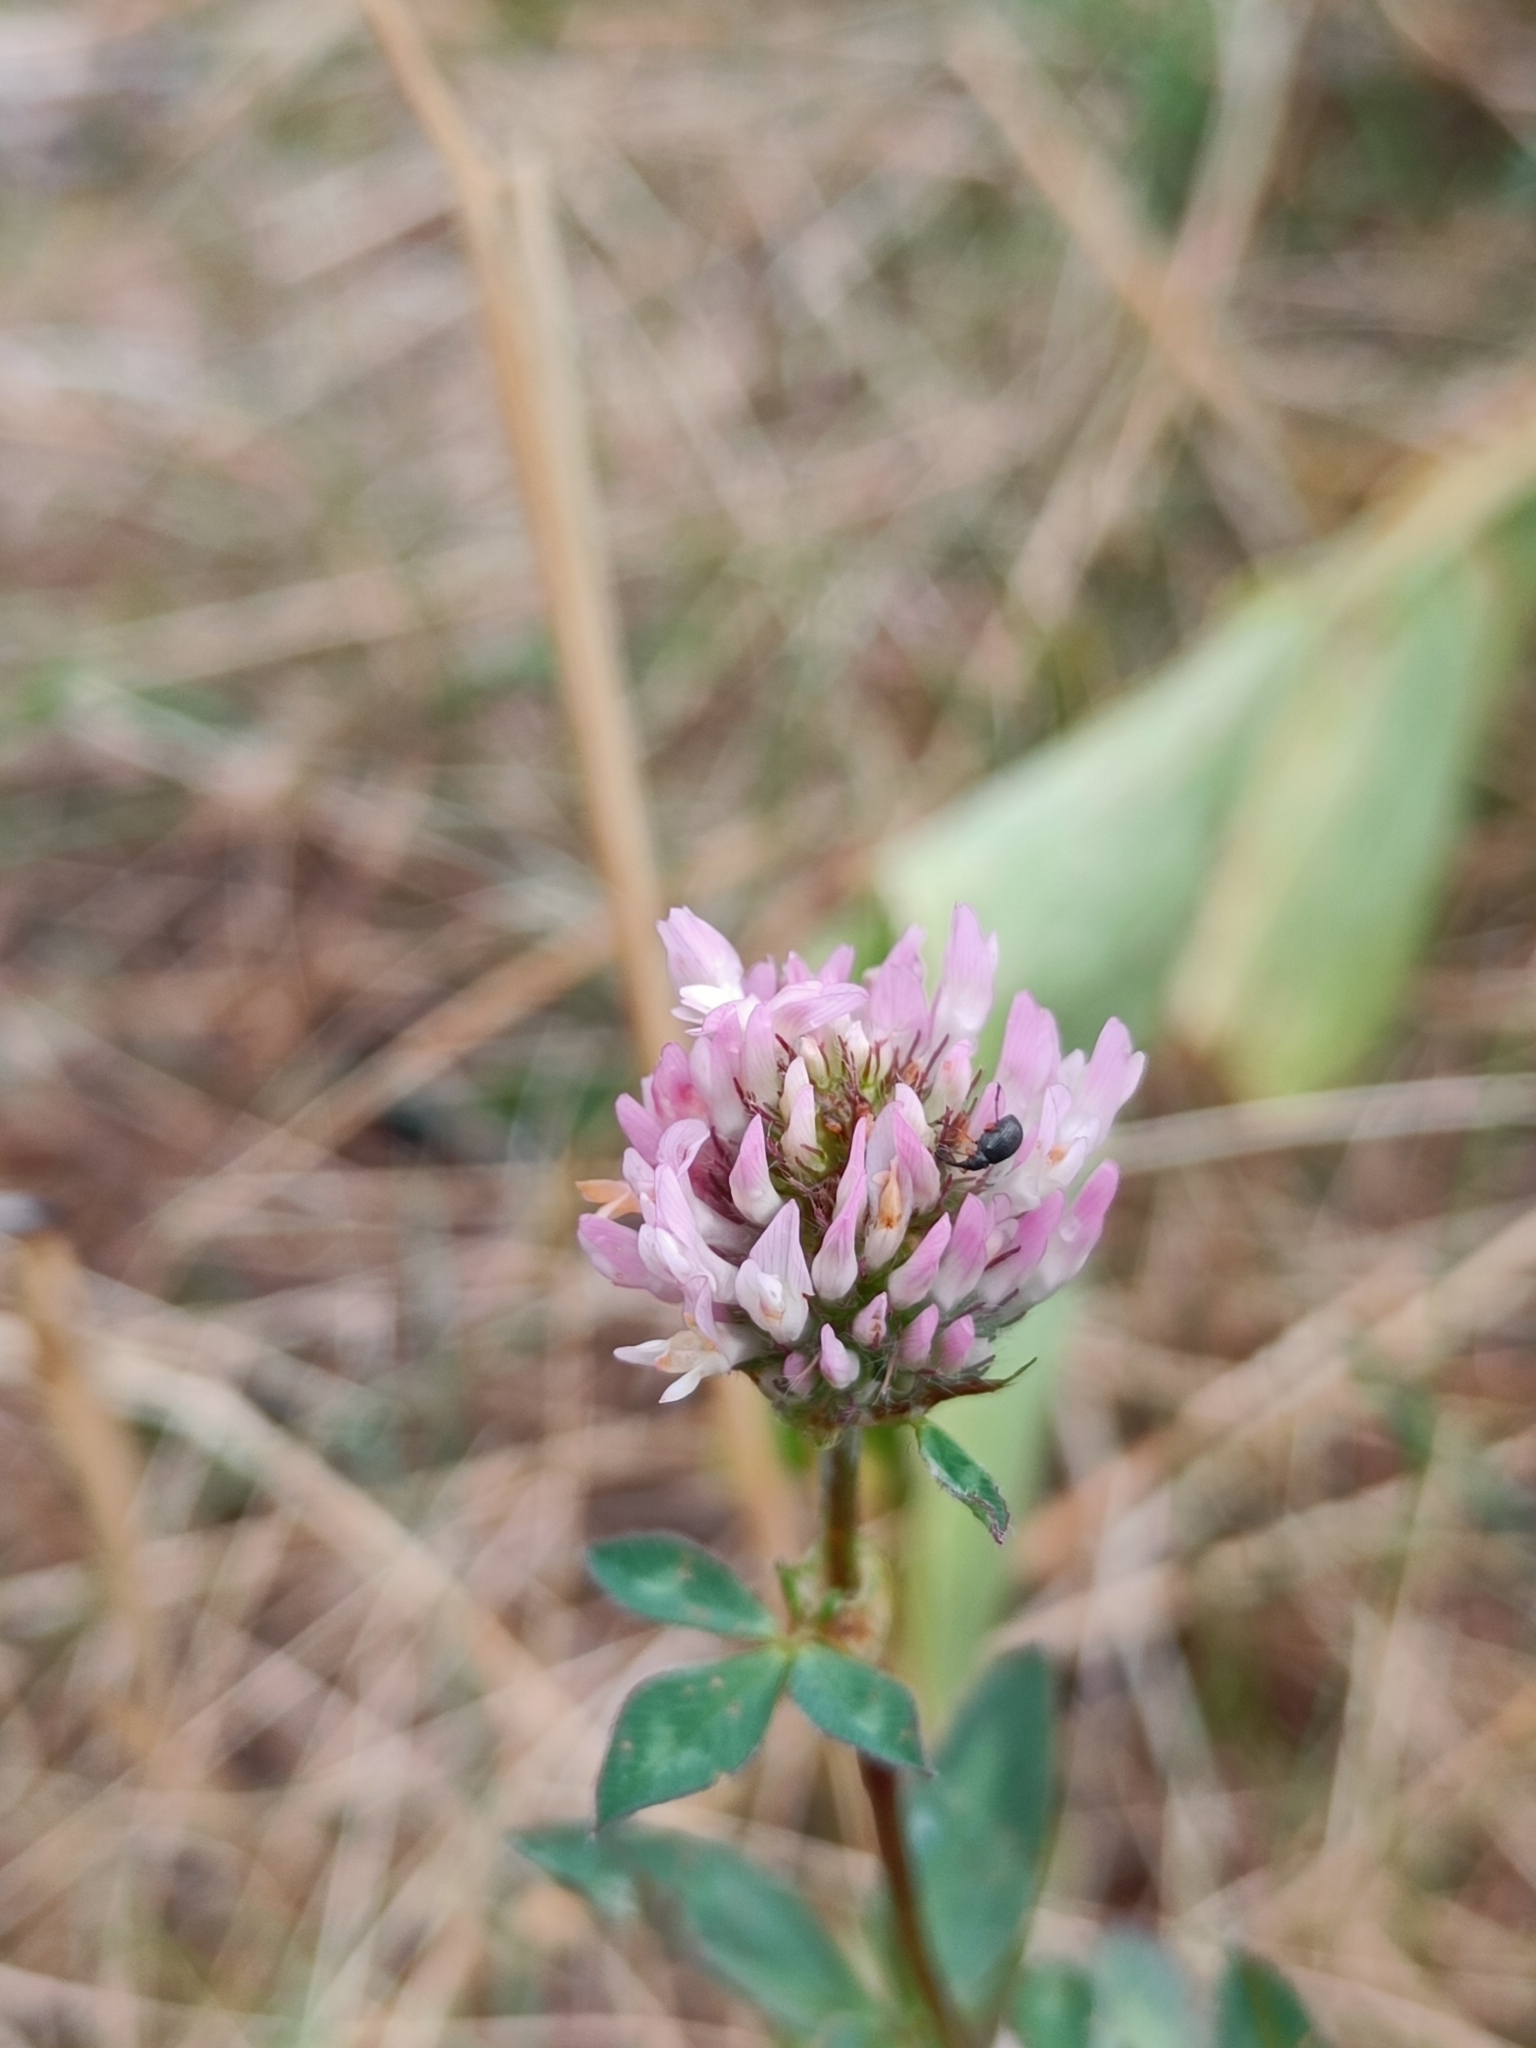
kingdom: Plantae
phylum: Tracheophyta
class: Magnoliopsida
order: Fabales
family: Fabaceae
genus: Trifolium
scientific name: Trifolium pratense
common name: Red clover
